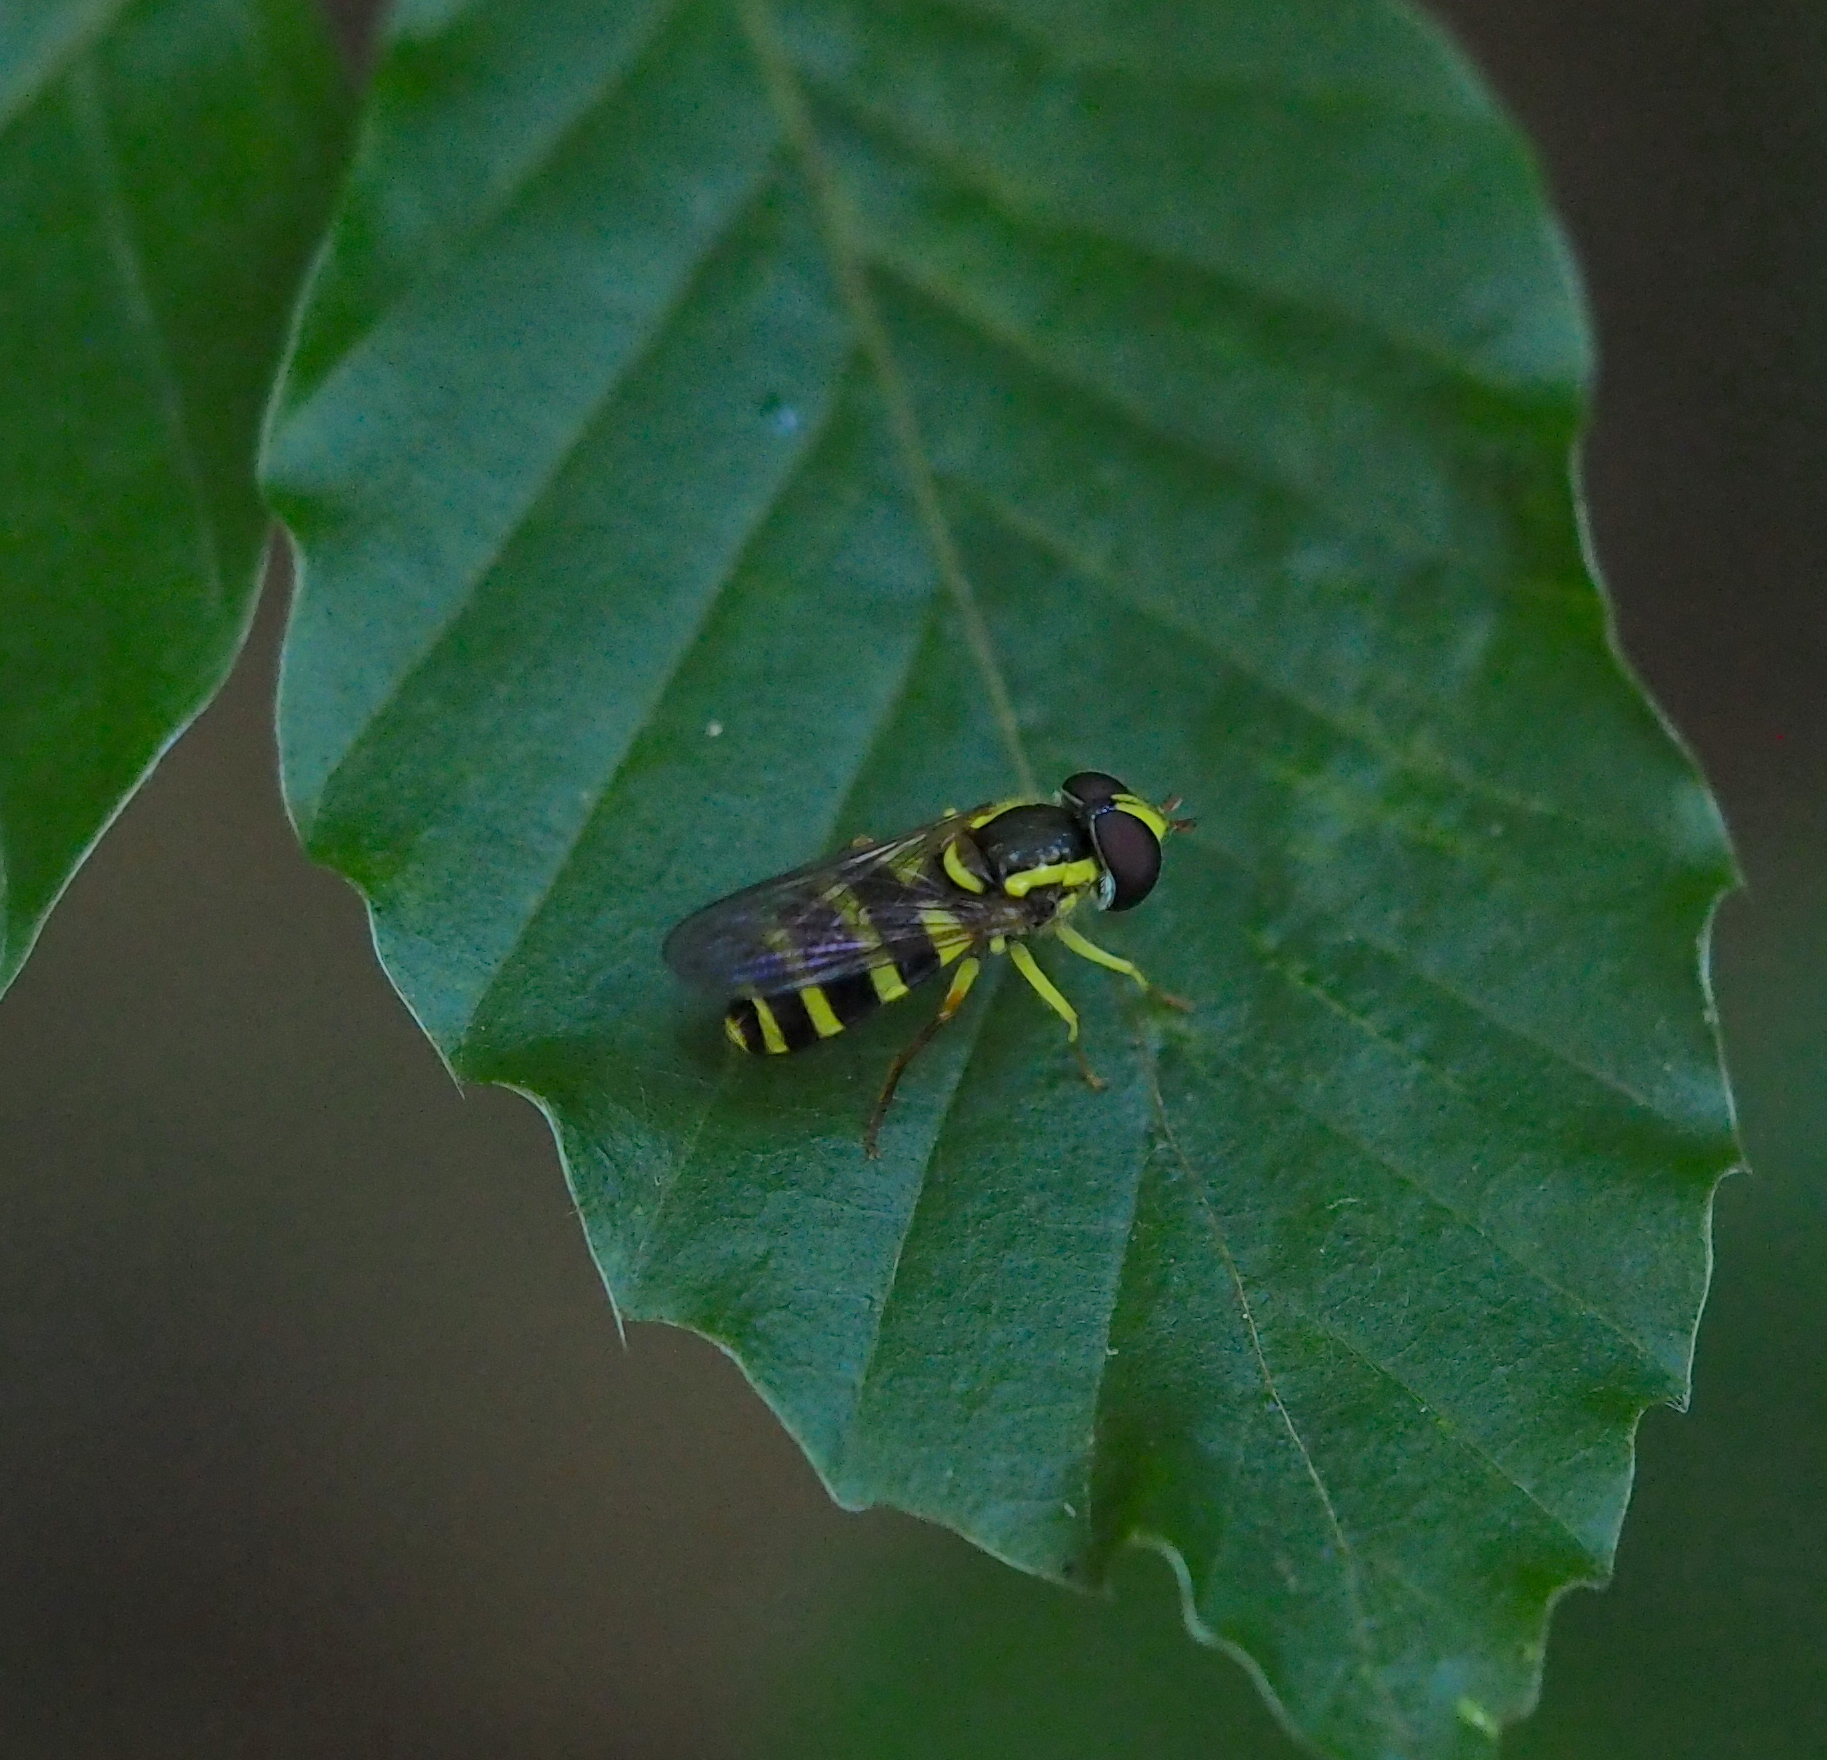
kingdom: Animalia
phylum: Arthropoda
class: Insecta
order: Diptera
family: Syrphidae
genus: Philhelius
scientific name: Philhelius laetus
